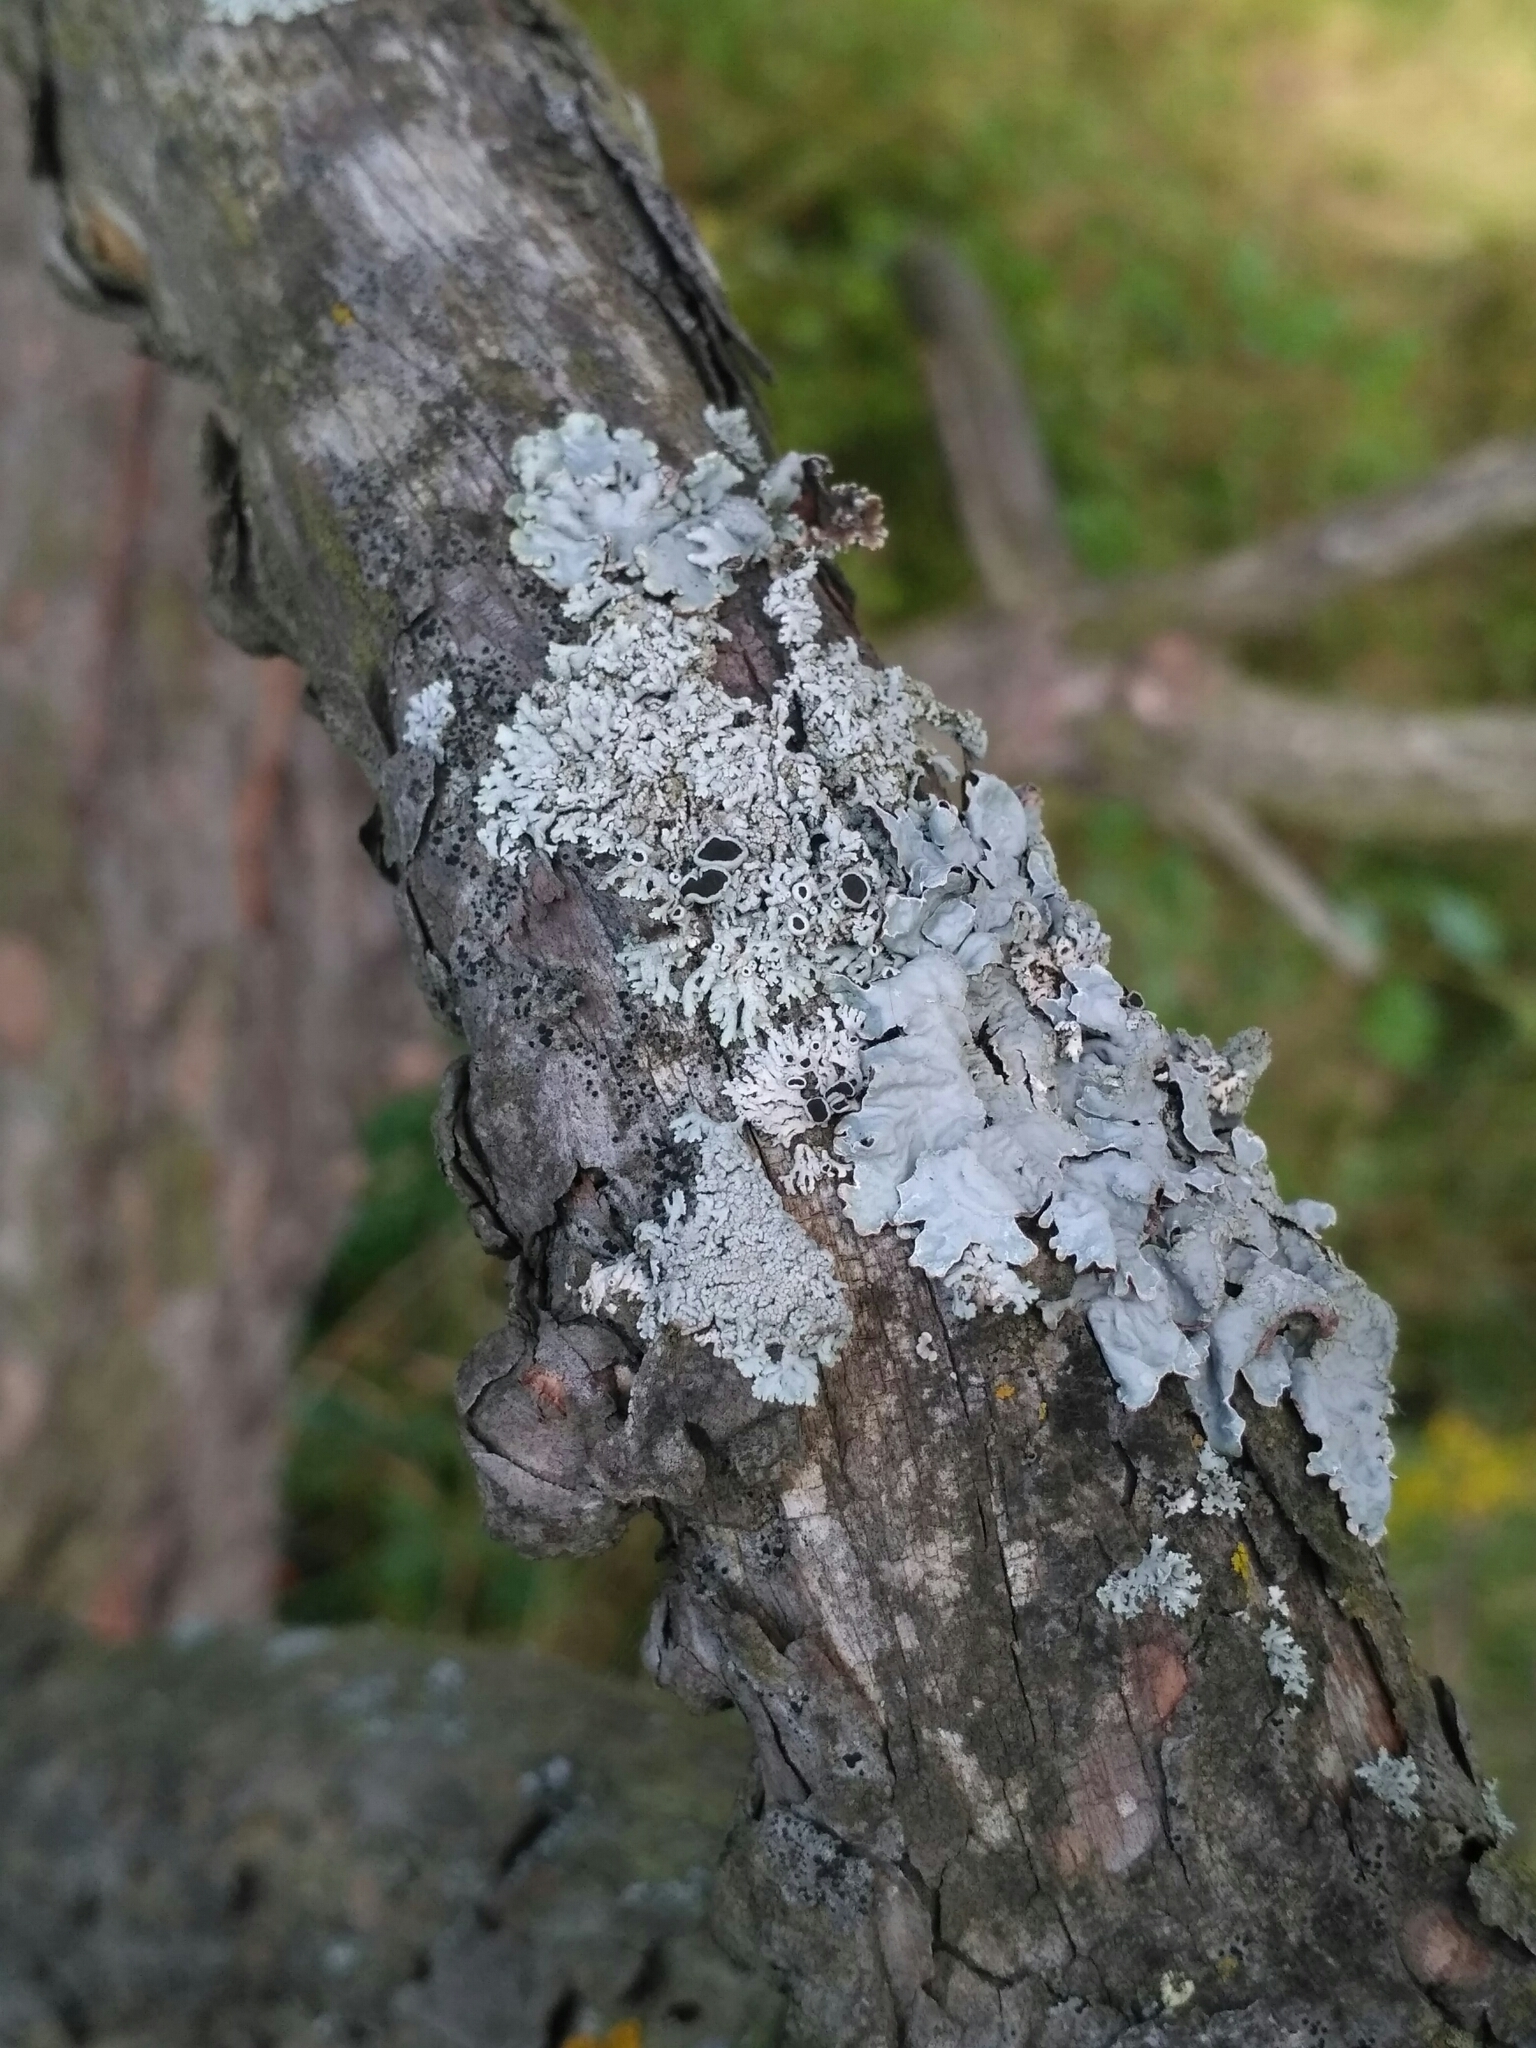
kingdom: Fungi
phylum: Ascomycota
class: Lecanoromycetes
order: Caliciales
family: Physciaceae
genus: Physcia
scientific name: Physcia stellaris
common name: Star rosette lichen
